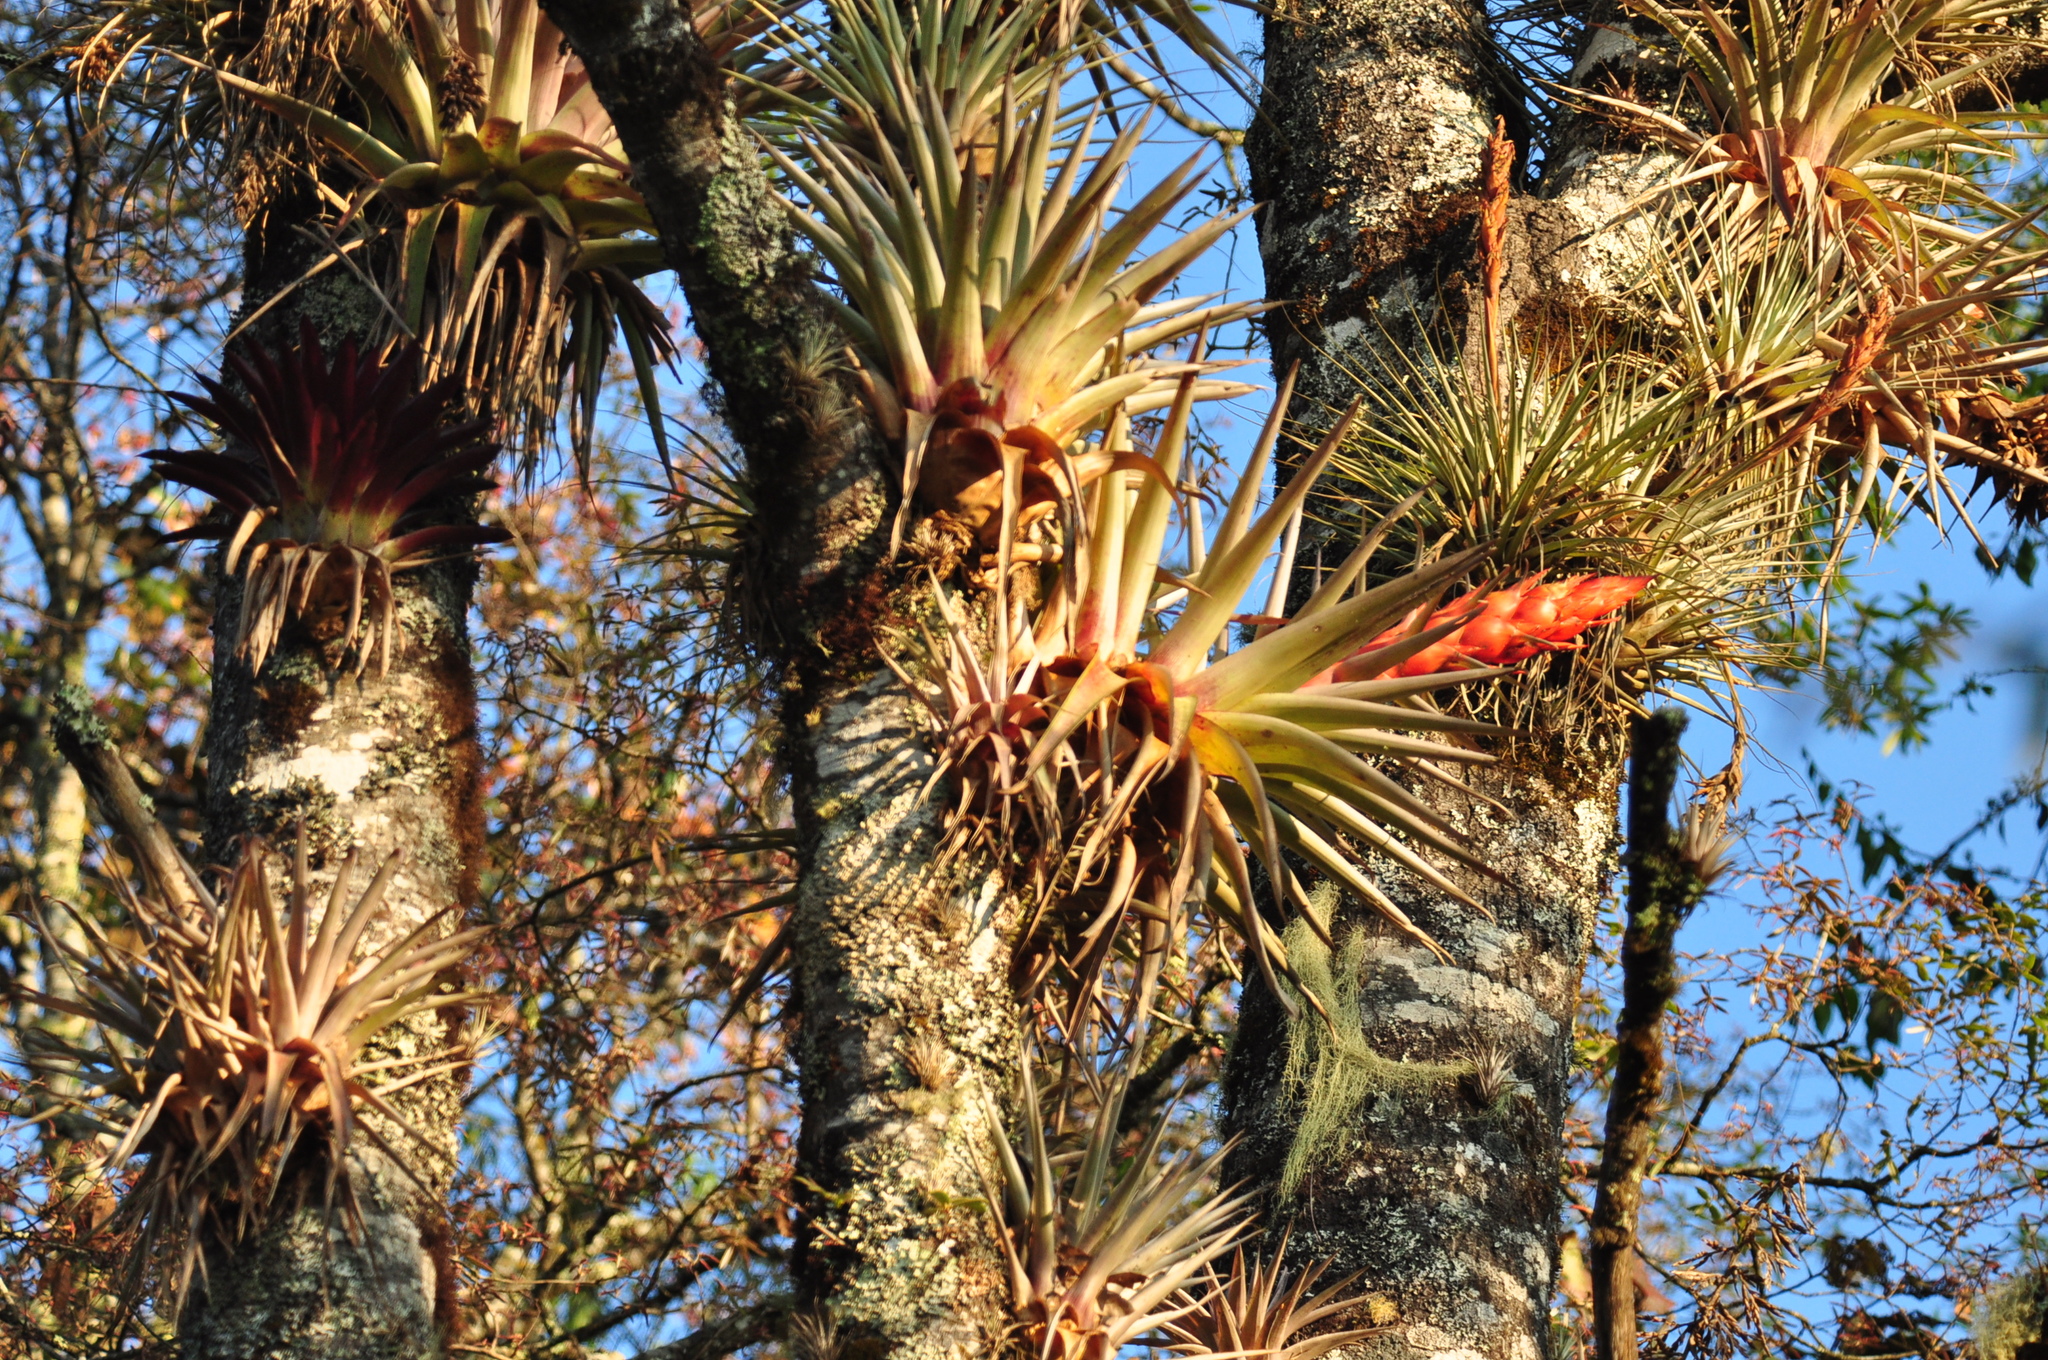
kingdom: Plantae
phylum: Tracheophyta
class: Liliopsida
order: Poales
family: Bromeliaceae
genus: Tillandsia
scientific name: Tillandsia ponderosa
